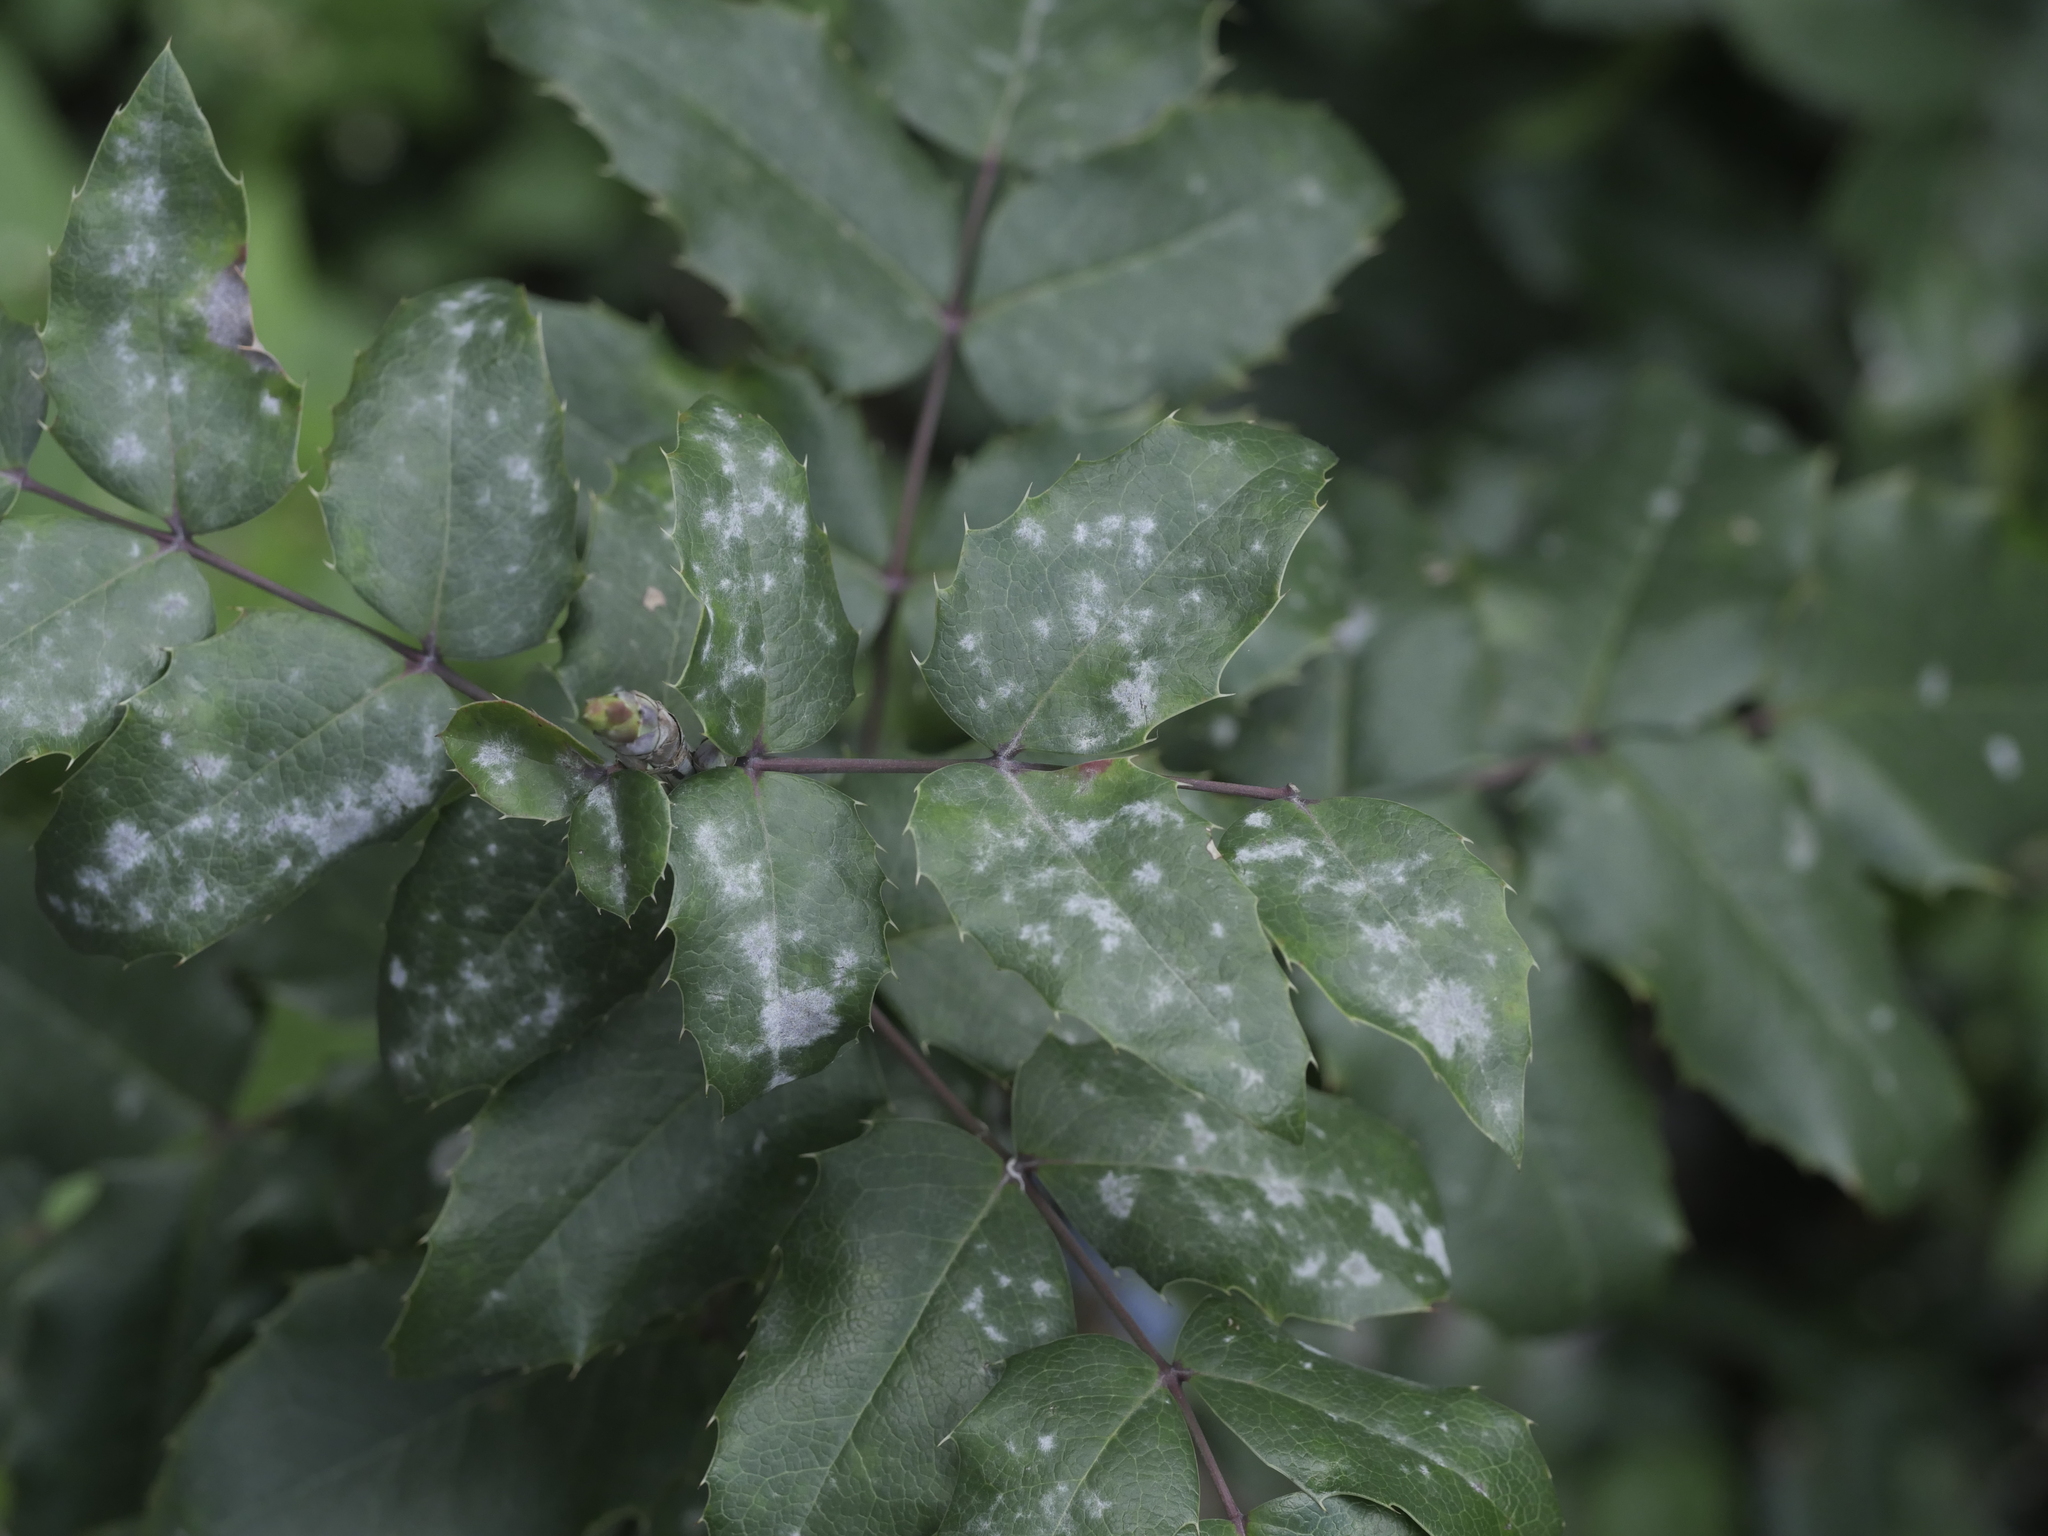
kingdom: Fungi
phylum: Ascomycota
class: Leotiomycetes
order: Helotiales
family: Erysiphaceae
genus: Erysiphe
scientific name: Erysiphe berberidis
